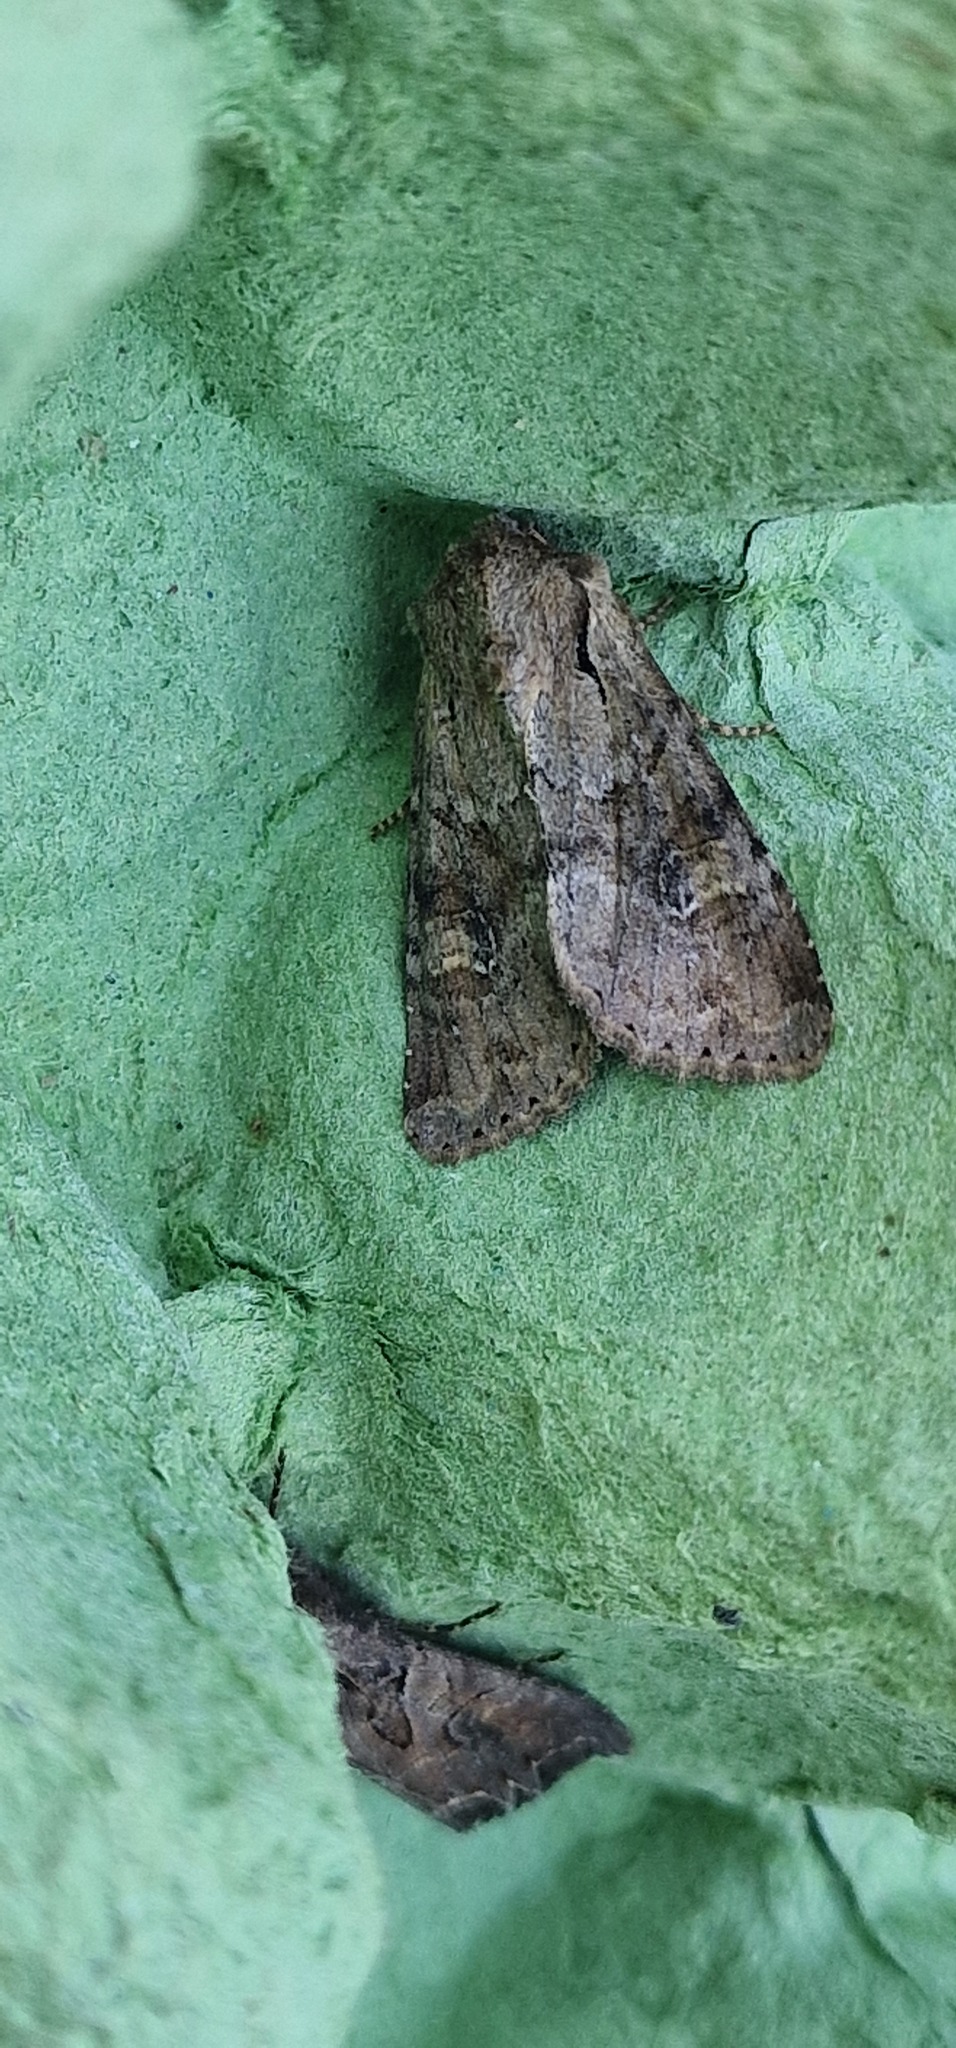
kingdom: Animalia
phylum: Arthropoda
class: Insecta
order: Lepidoptera
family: Noctuidae
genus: Apamea
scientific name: Apamea sordens
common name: Rustic shoulder-knot
